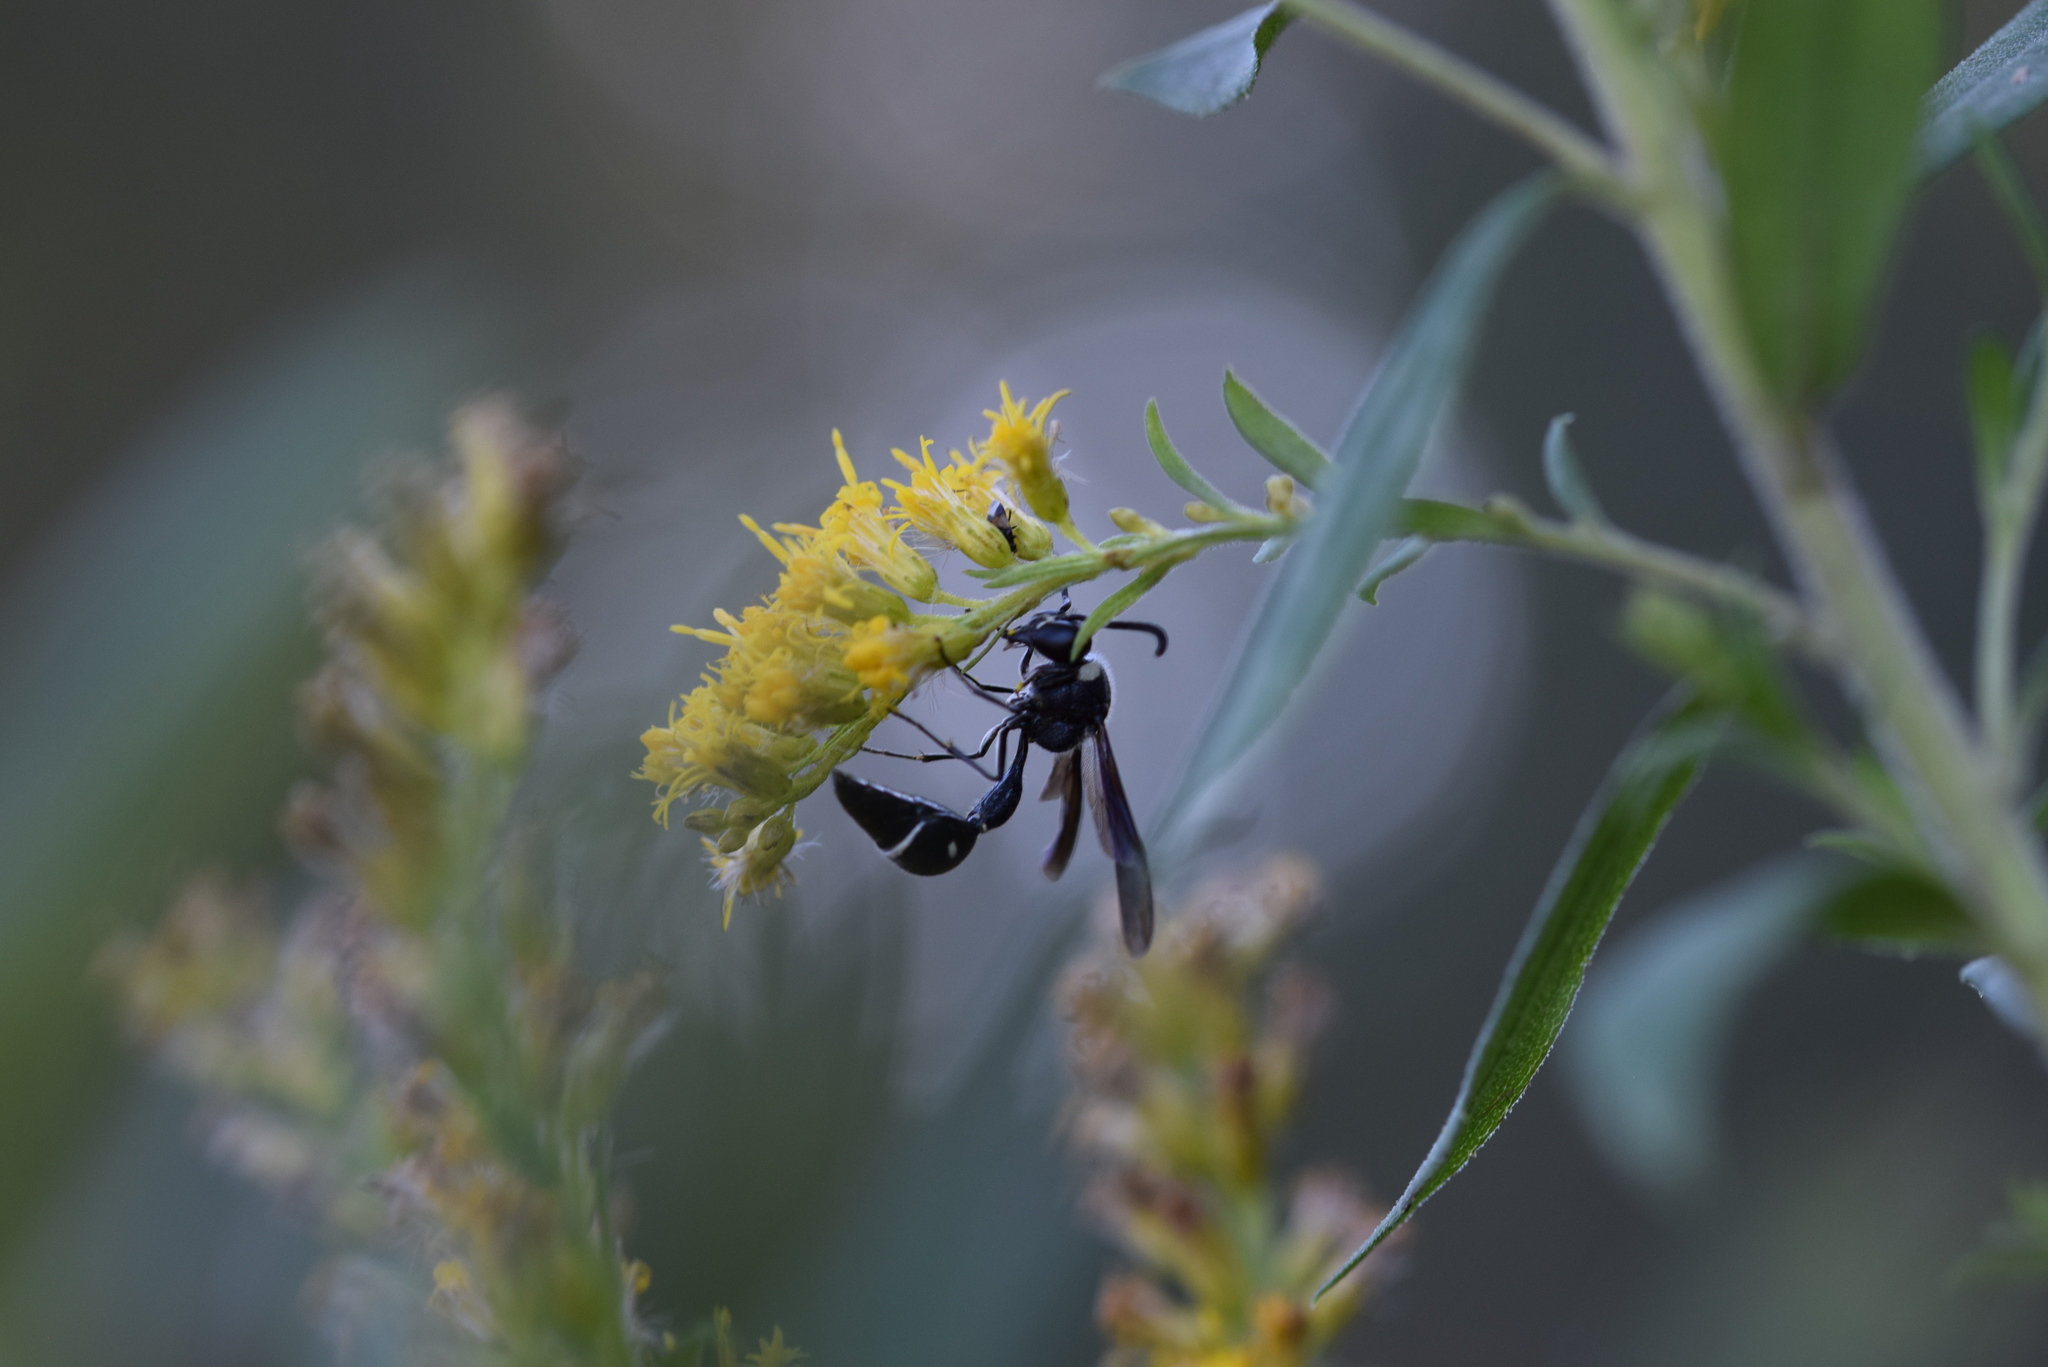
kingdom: Animalia
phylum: Arthropoda
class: Insecta
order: Hymenoptera
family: Vespidae
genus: Eumenes
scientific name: Eumenes fraternus
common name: Fraternal potter wasp
